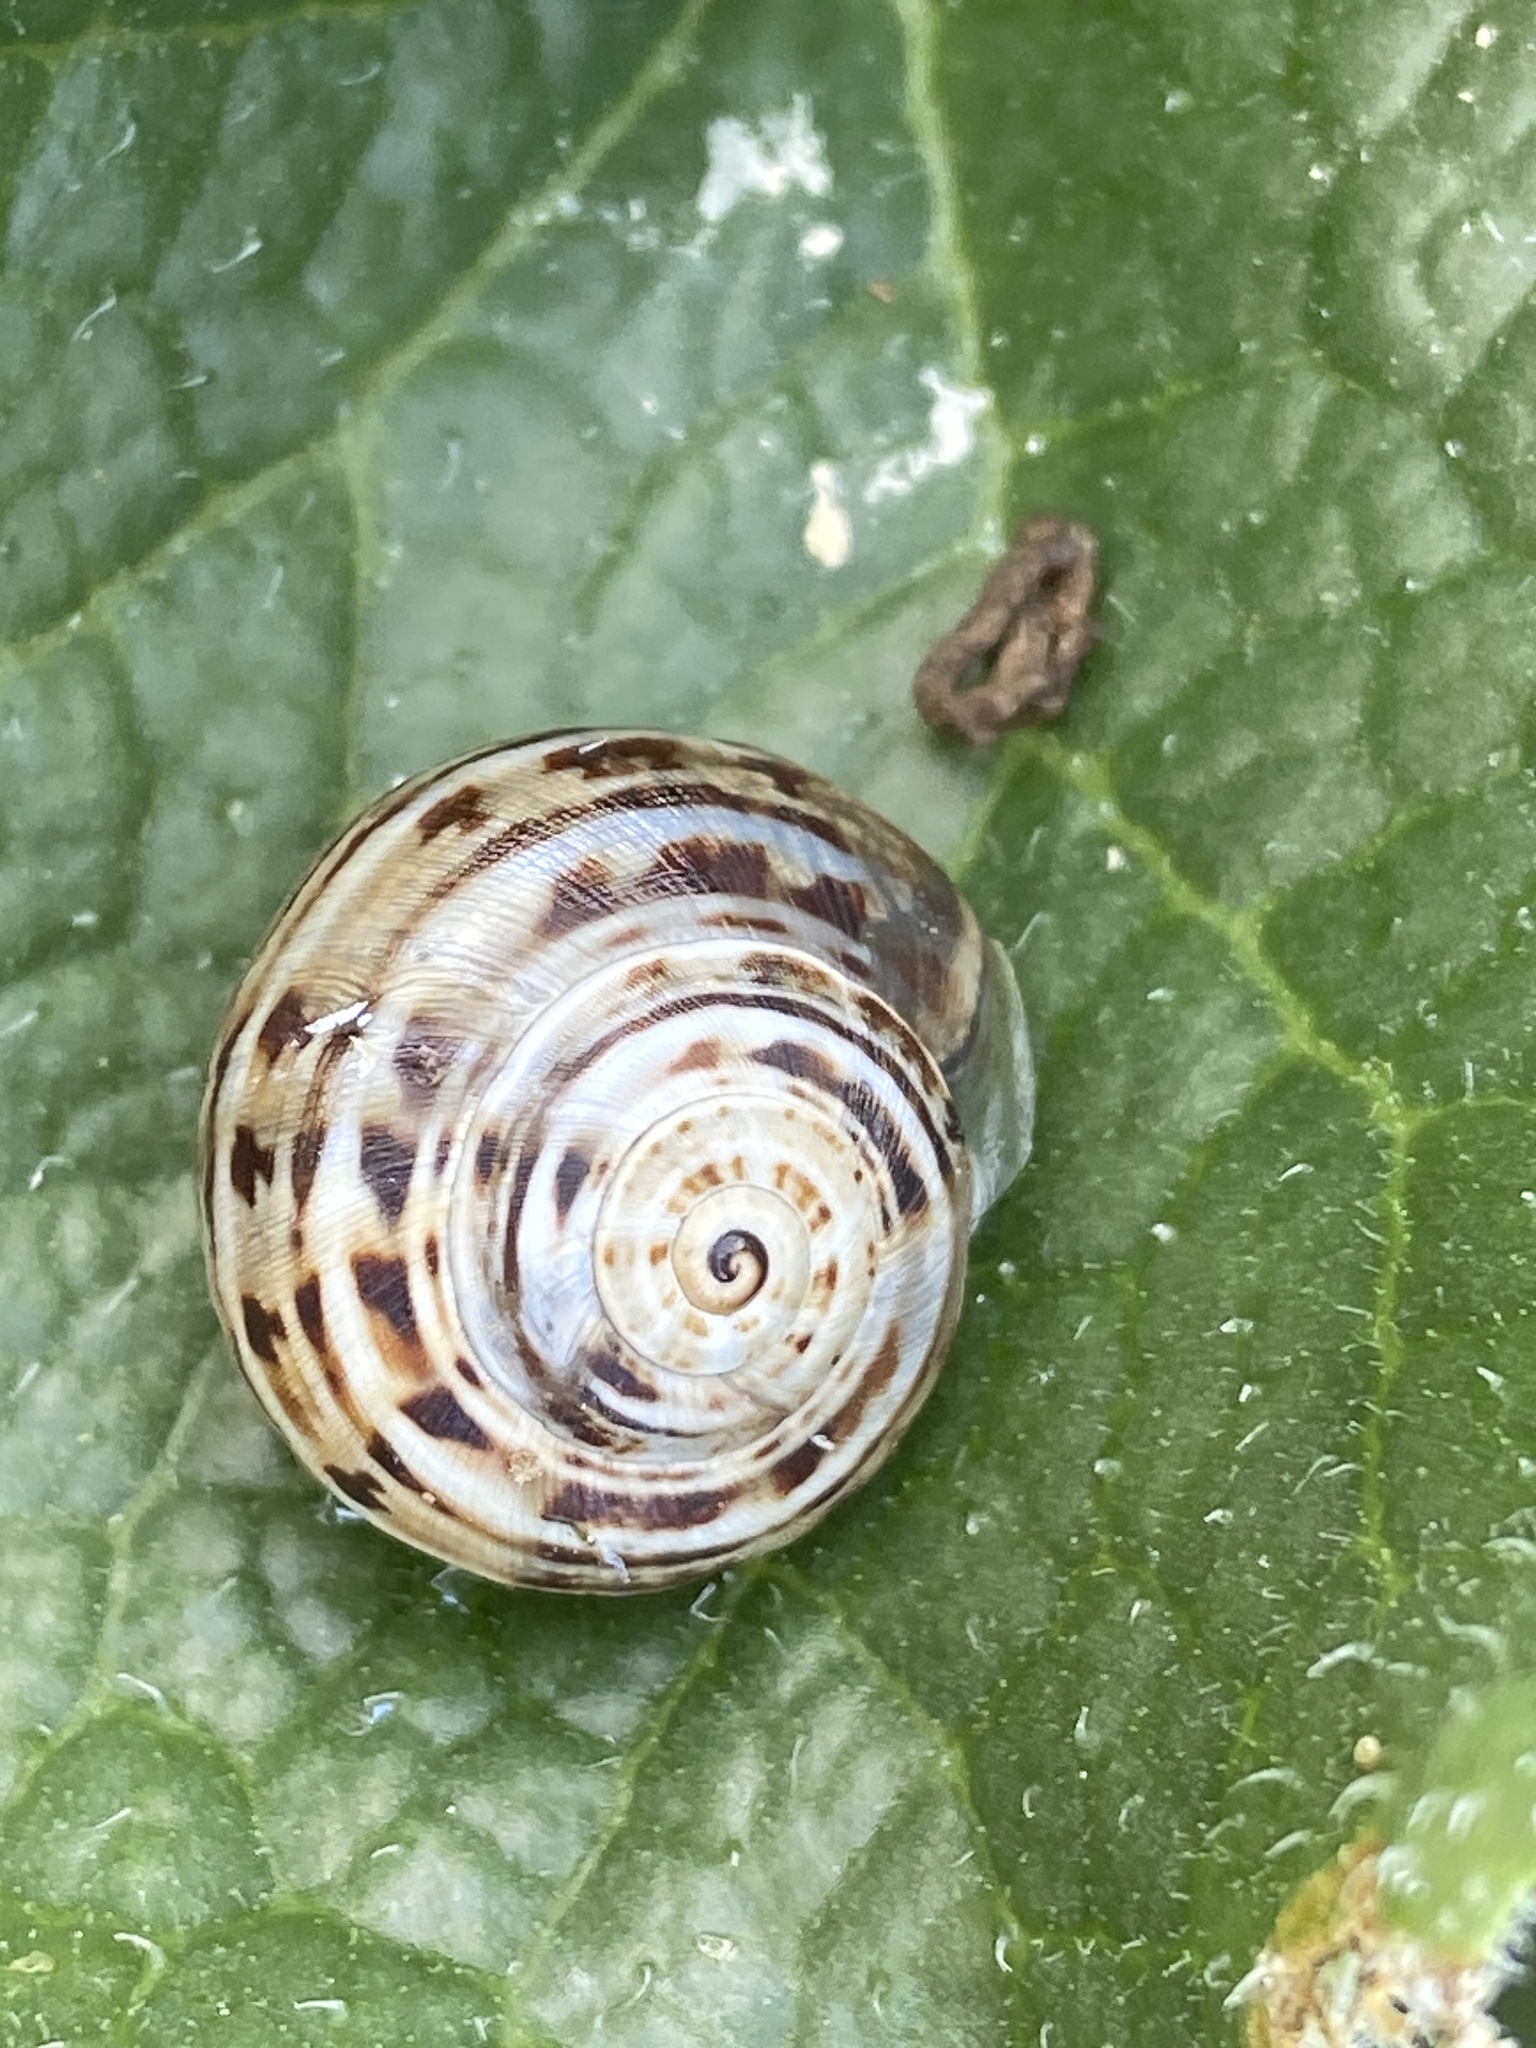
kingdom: Animalia
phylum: Mollusca
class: Gastropoda
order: Stylommatophora
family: Helicidae
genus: Theba
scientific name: Theba pisana
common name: White snail
